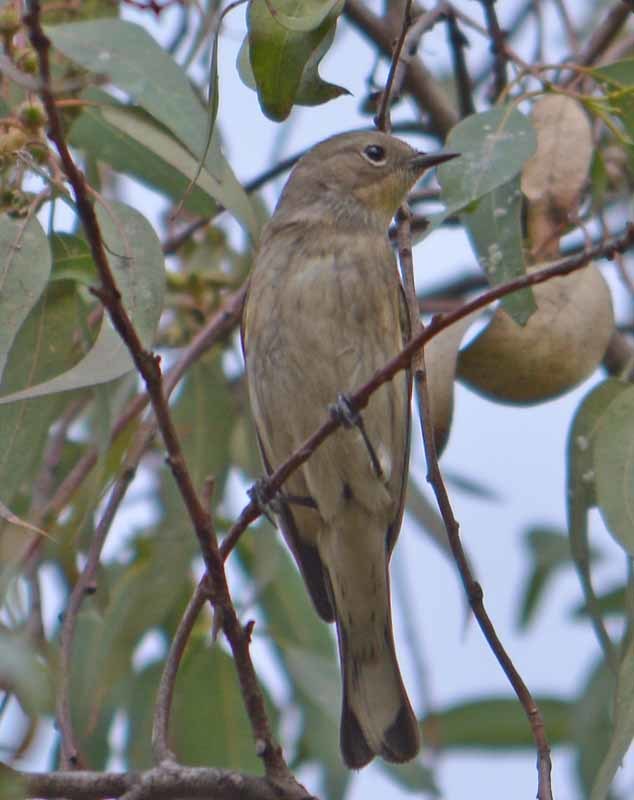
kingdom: Animalia
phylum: Chordata
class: Aves
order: Passeriformes
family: Parulidae
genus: Setophaga
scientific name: Setophaga coronata
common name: Myrtle warbler
